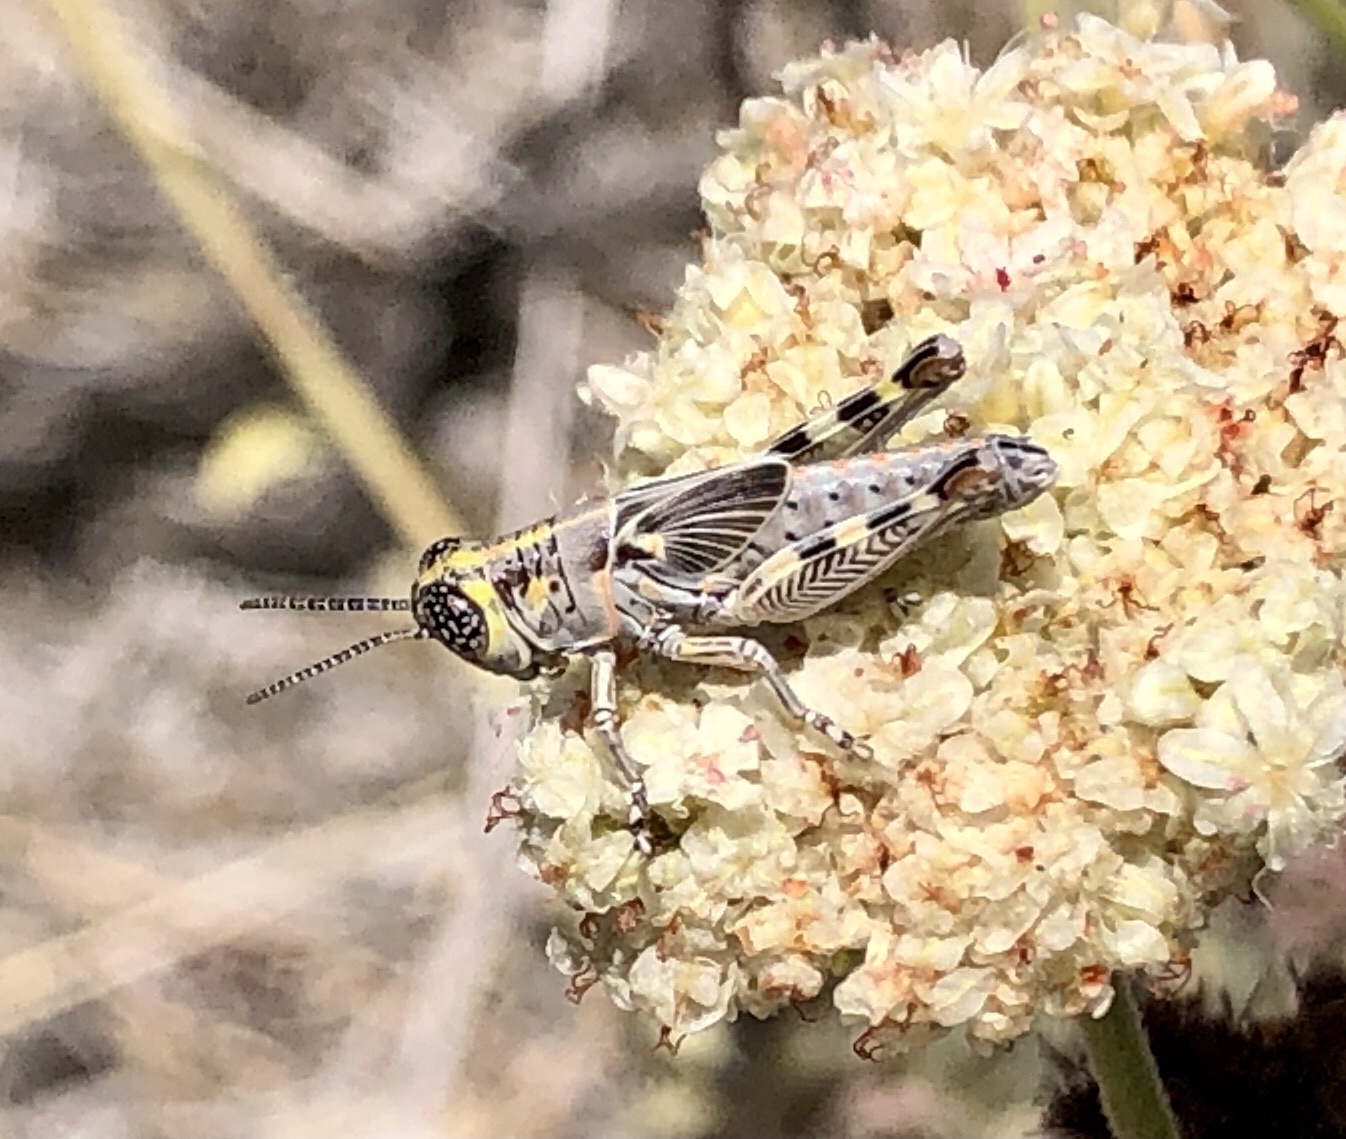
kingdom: Animalia
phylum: Arthropoda
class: Insecta
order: Orthoptera
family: Acrididae
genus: Poecilotettix
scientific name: Poecilotettix sanguineus
